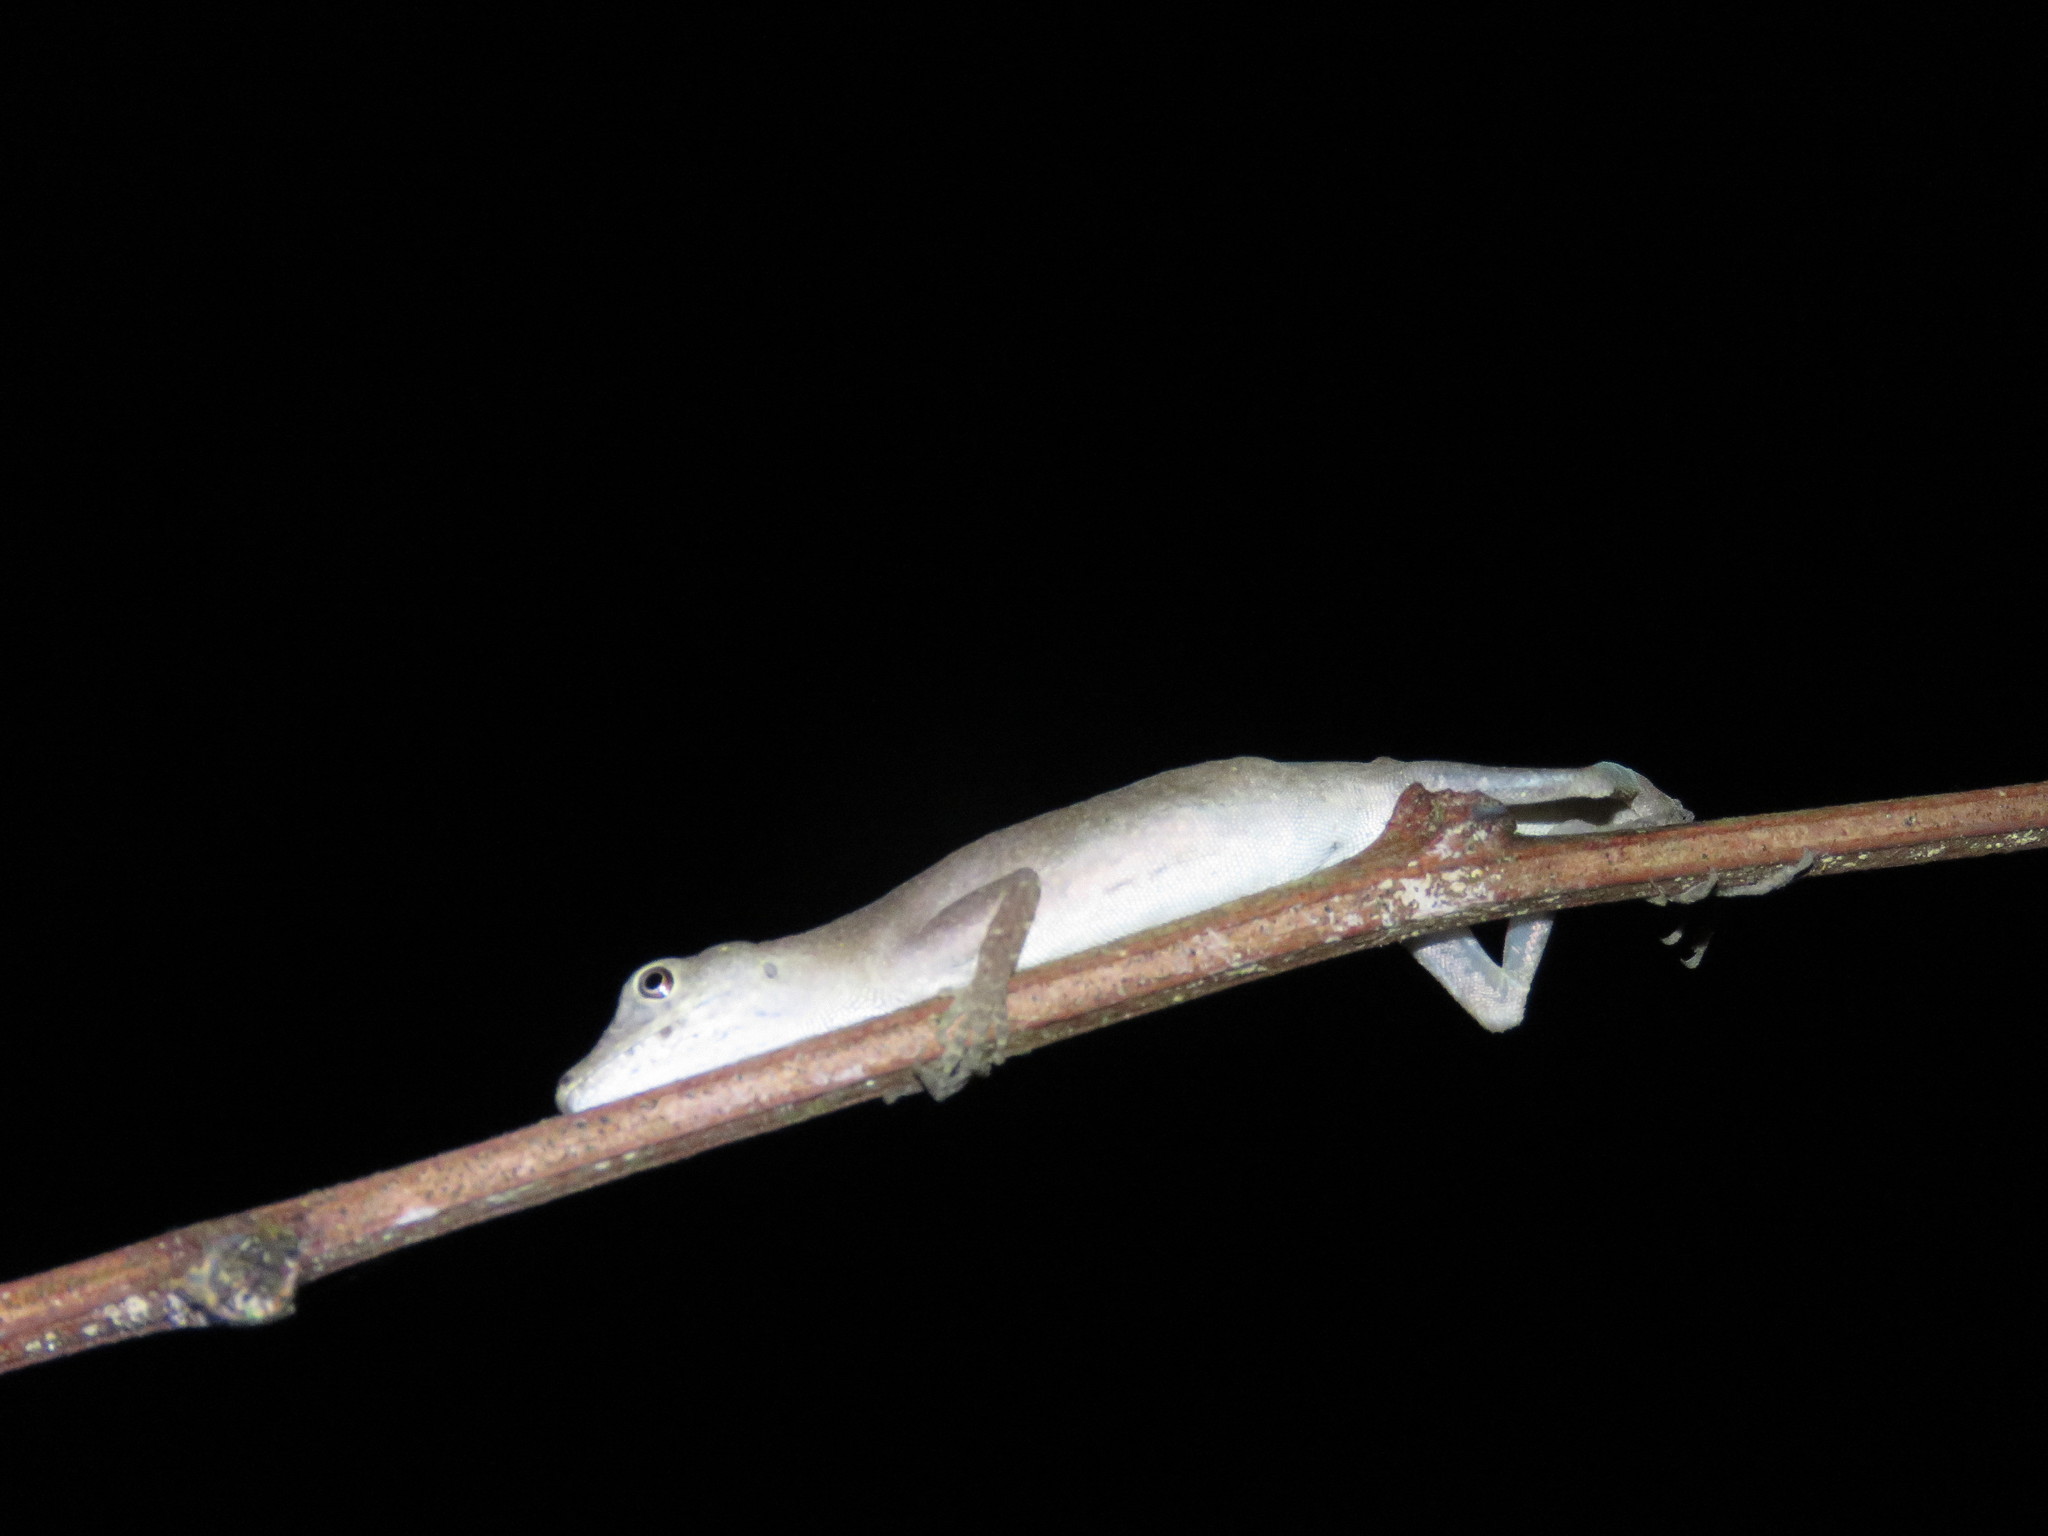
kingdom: Animalia
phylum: Chordata
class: Squamata
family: Dactyloidae
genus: Anolis
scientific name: Anolis fuscoauratus
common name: Brown-eared anole
